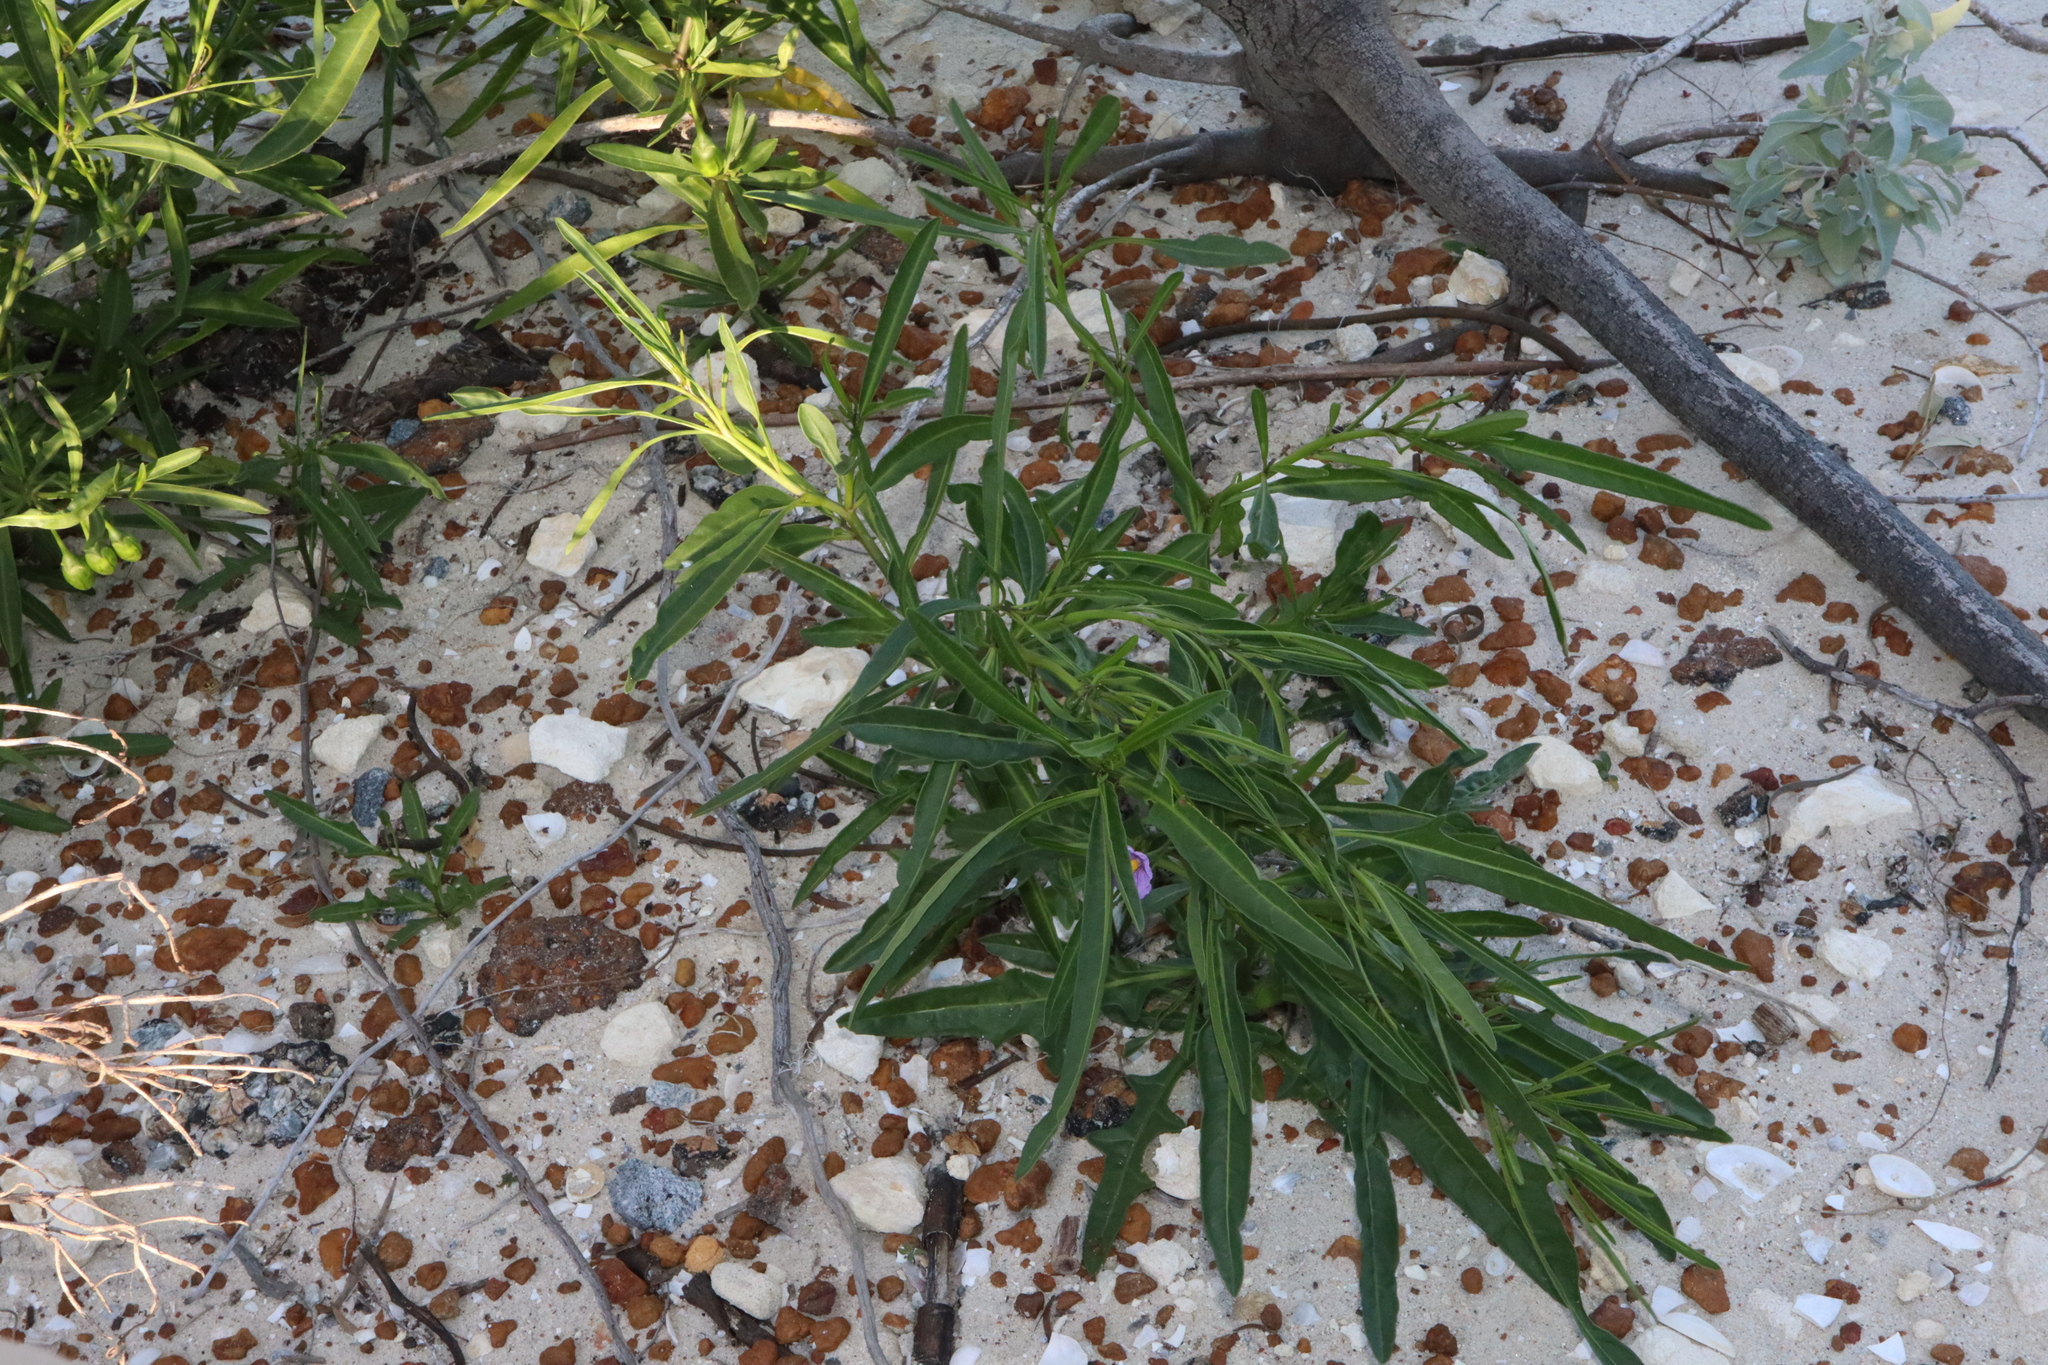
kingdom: Plantae
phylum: Tracheophyta
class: Magnoliopsida
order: Solanales
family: Solanaceae
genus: Solanum
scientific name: Solanum symonii
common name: South australian kangaroo-apple
